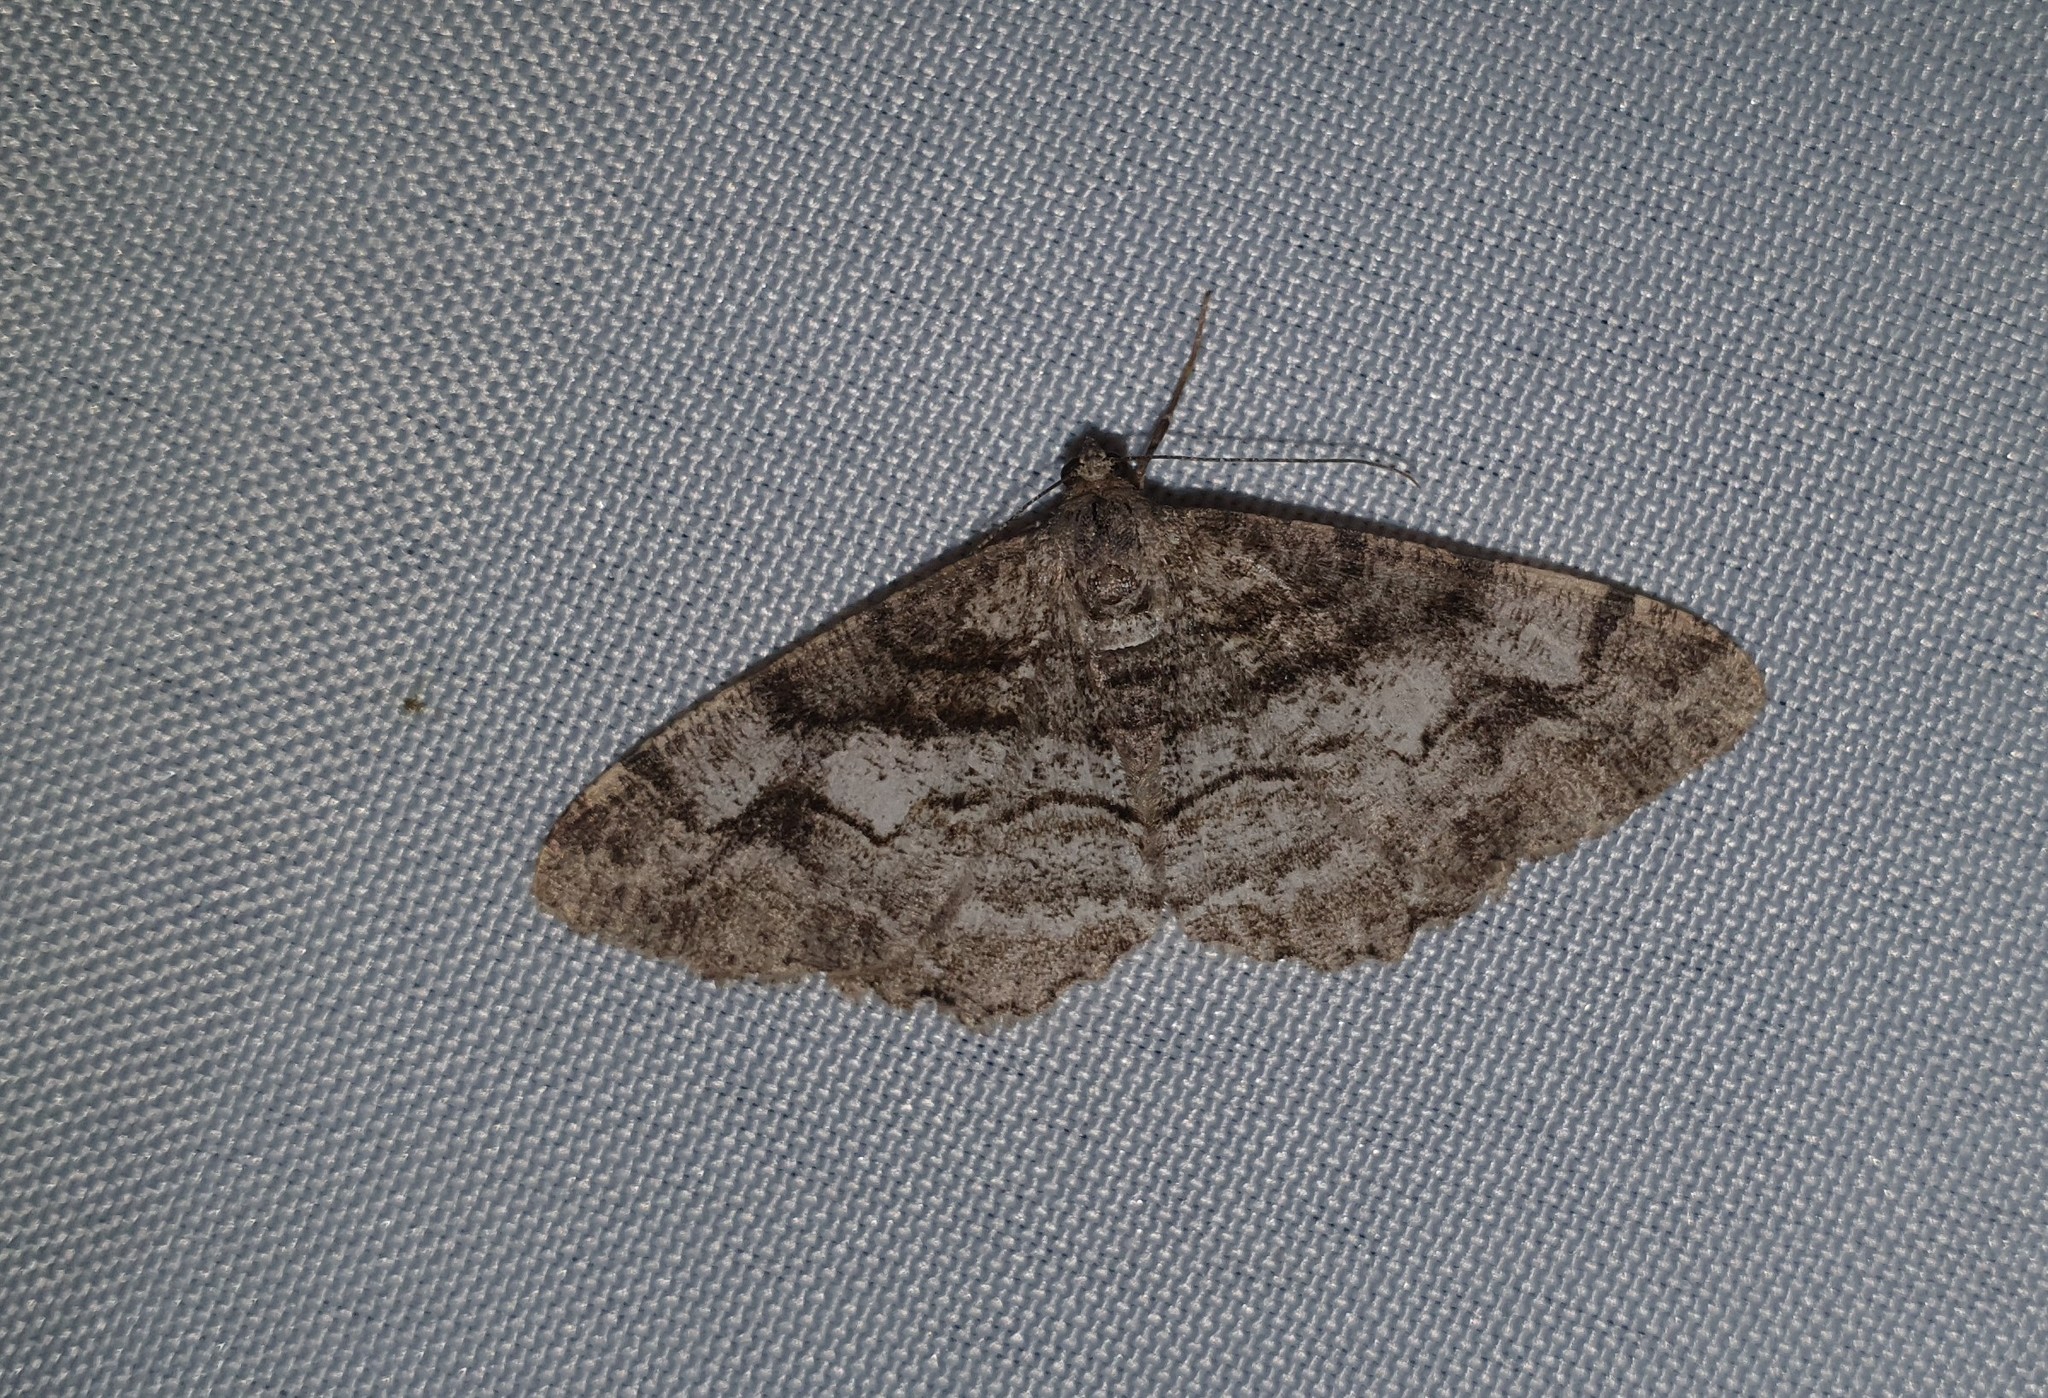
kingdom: Animalia
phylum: Arthropoda
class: Insecta
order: Lepidoptera
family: Geometridae
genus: Alcis
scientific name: Alcis repandata
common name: Mottled beauty
